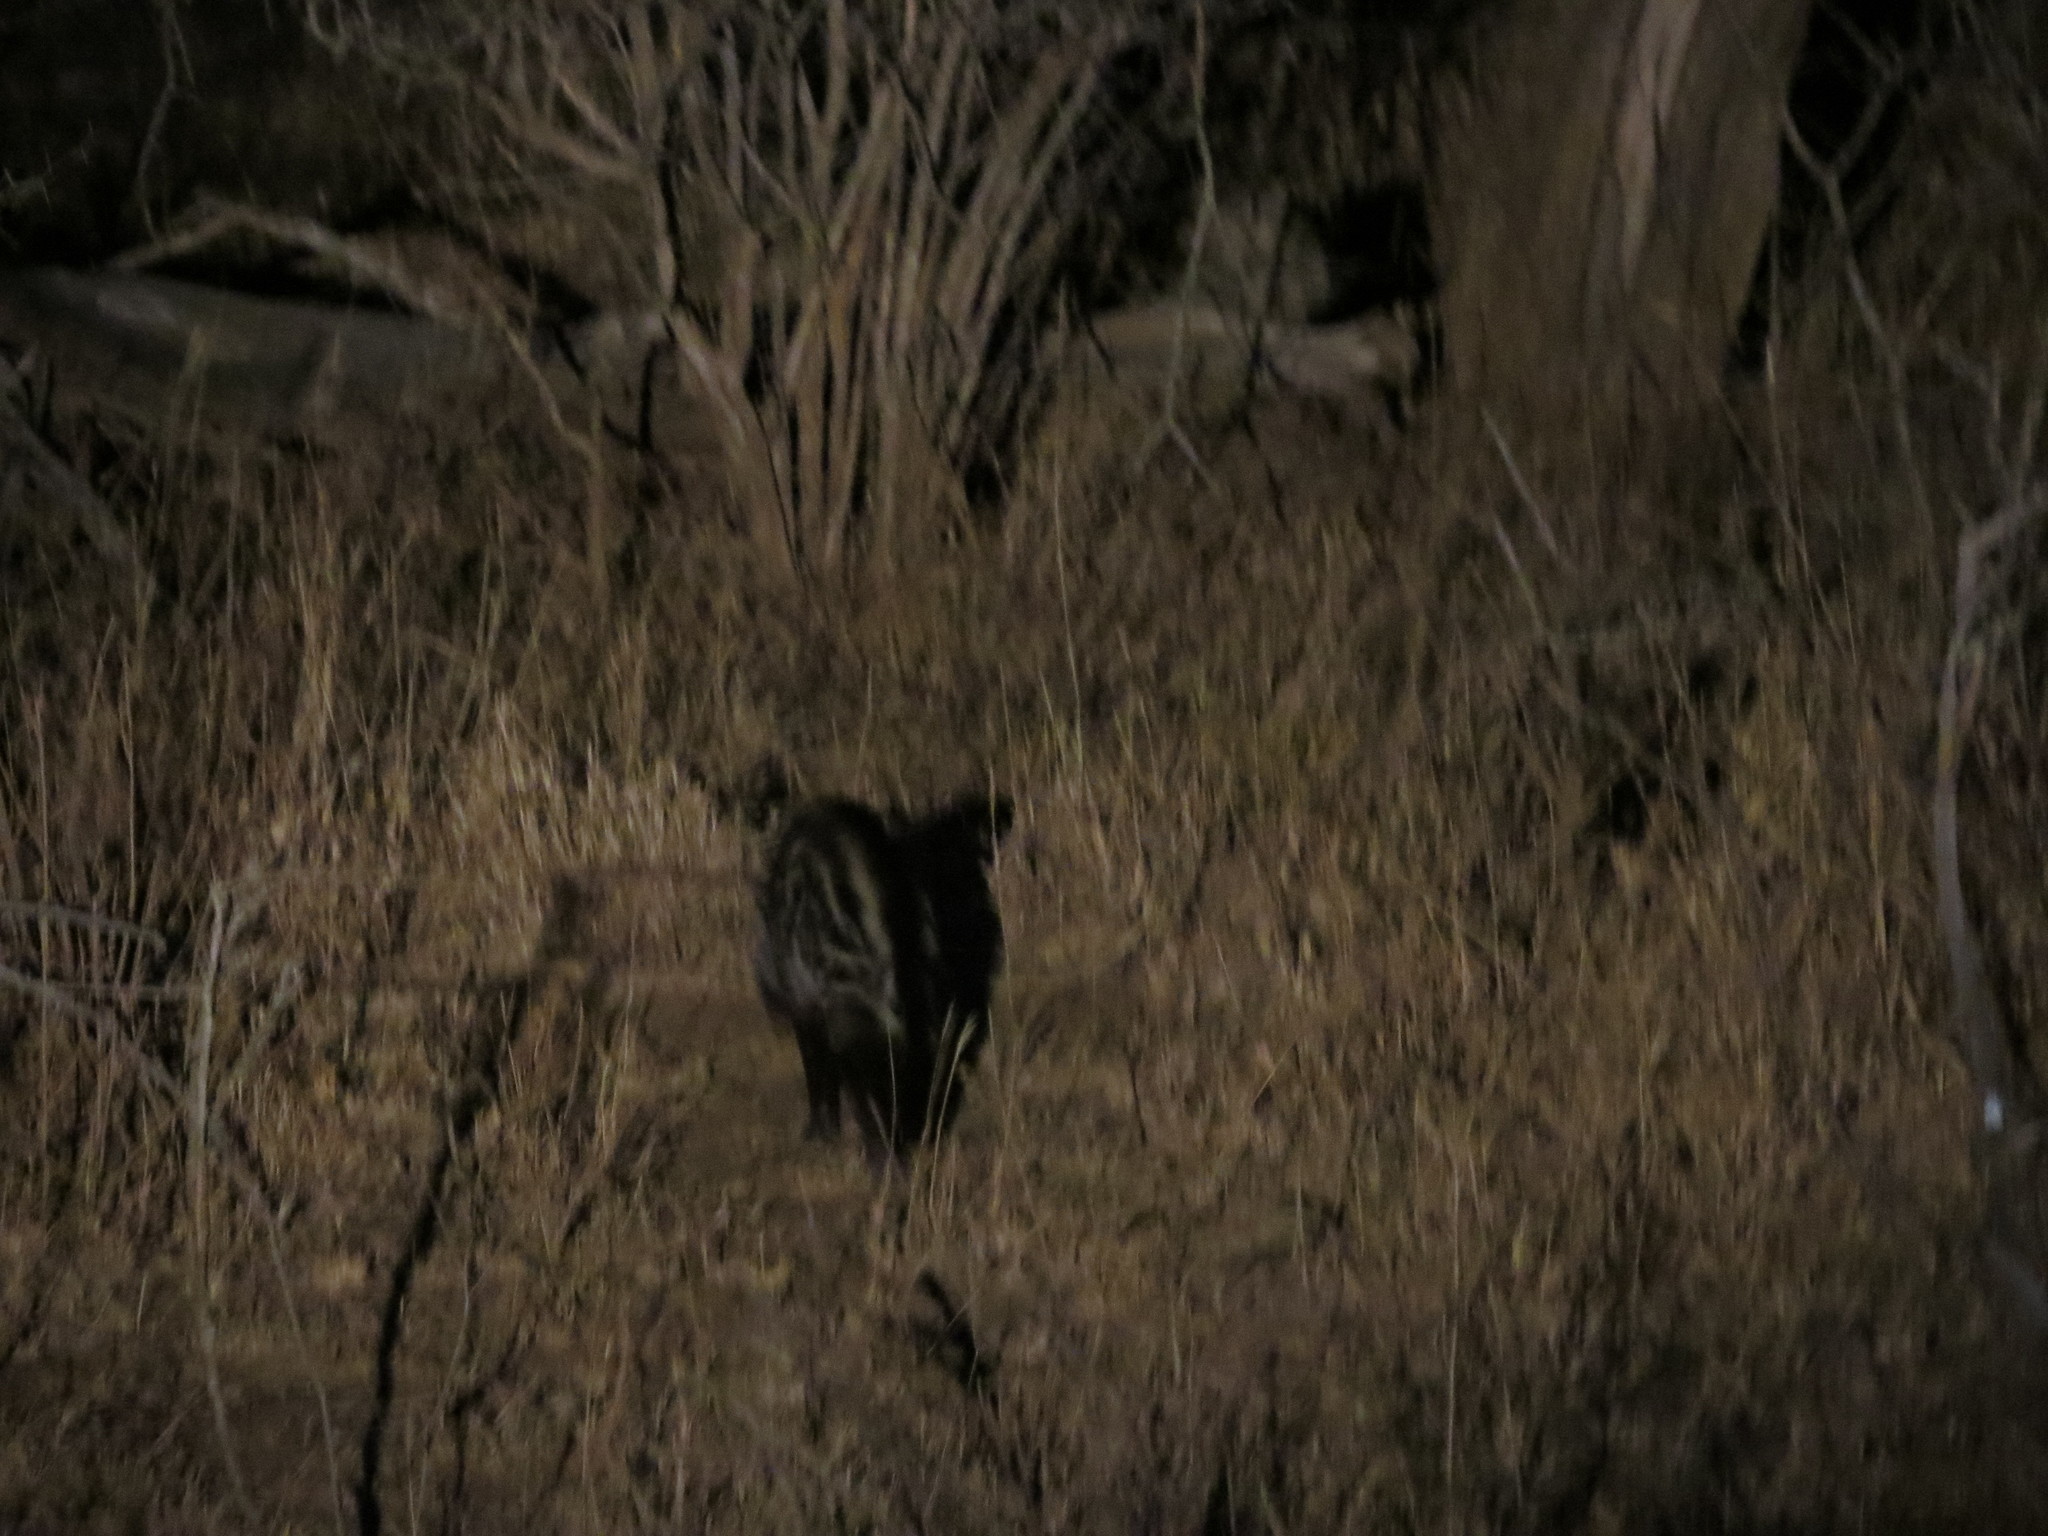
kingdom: Animalia
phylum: Chordata
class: Mammalia
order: Carnivora
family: Viverridae
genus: Civettictis
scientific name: Civettictis civetta
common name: African civet
